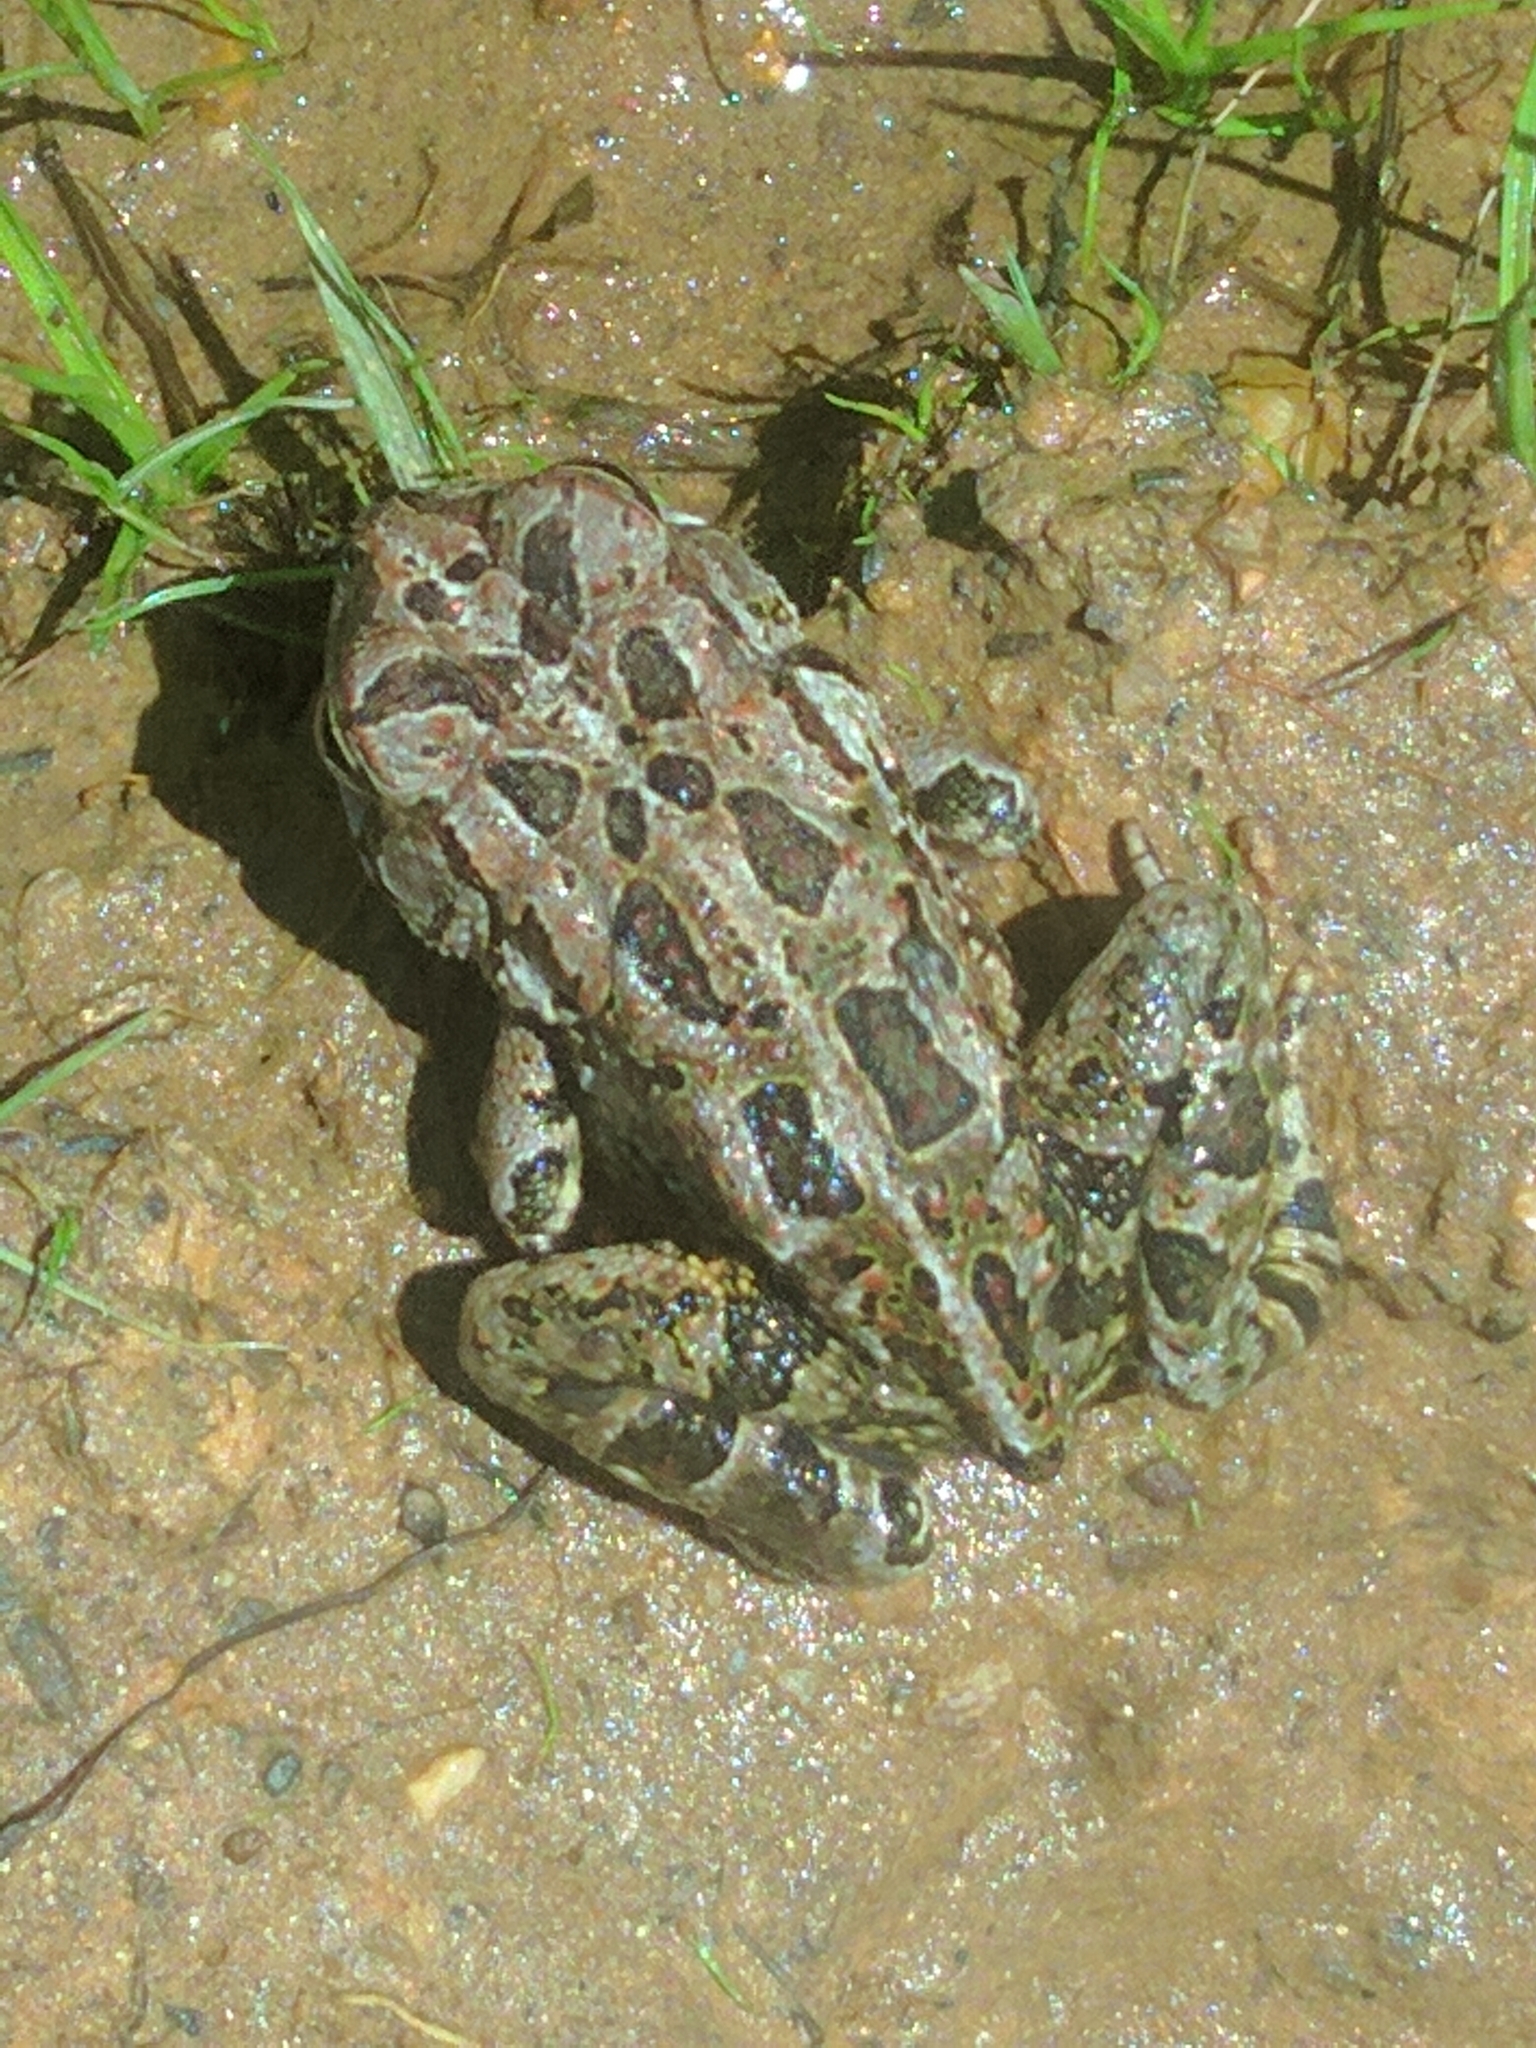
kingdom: Animalia
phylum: Chordata
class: Amphibia
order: Anura
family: Bufonidae
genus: Anaxyrus
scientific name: Anaxyrus fowleri
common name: Fowler's toad
